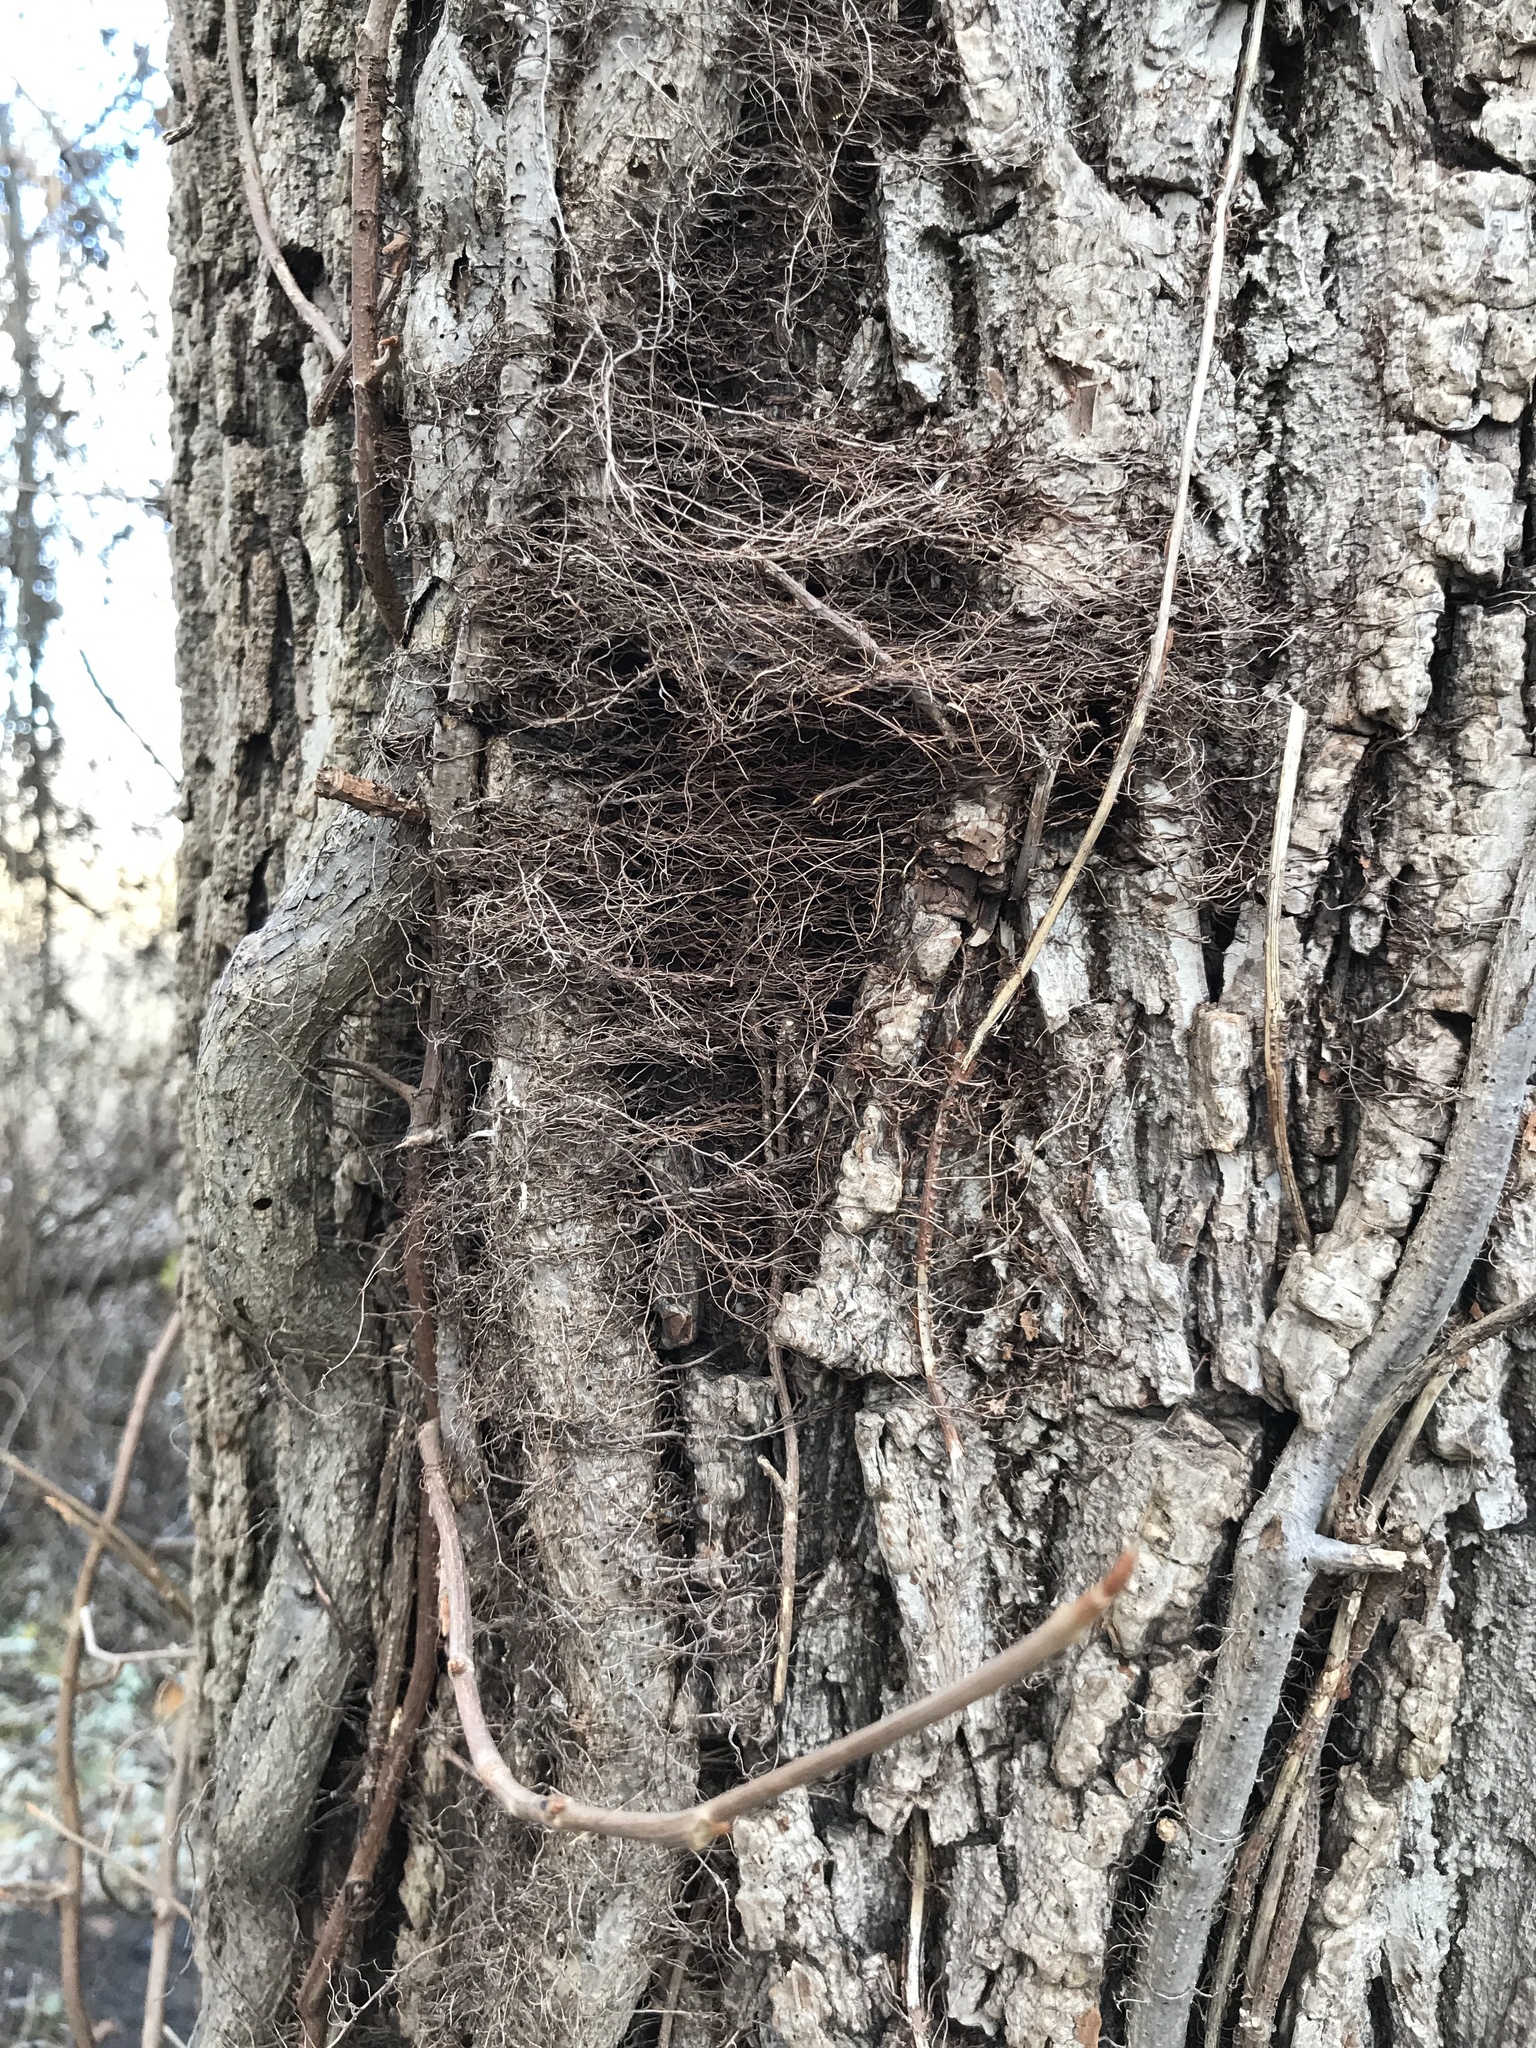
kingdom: Plantae
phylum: Tracheophyta
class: Magnoliopsida
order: Sapindales
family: Anacardiaceae
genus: Toxicodendron
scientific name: Toxicodendron radicans
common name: Poison ivy
